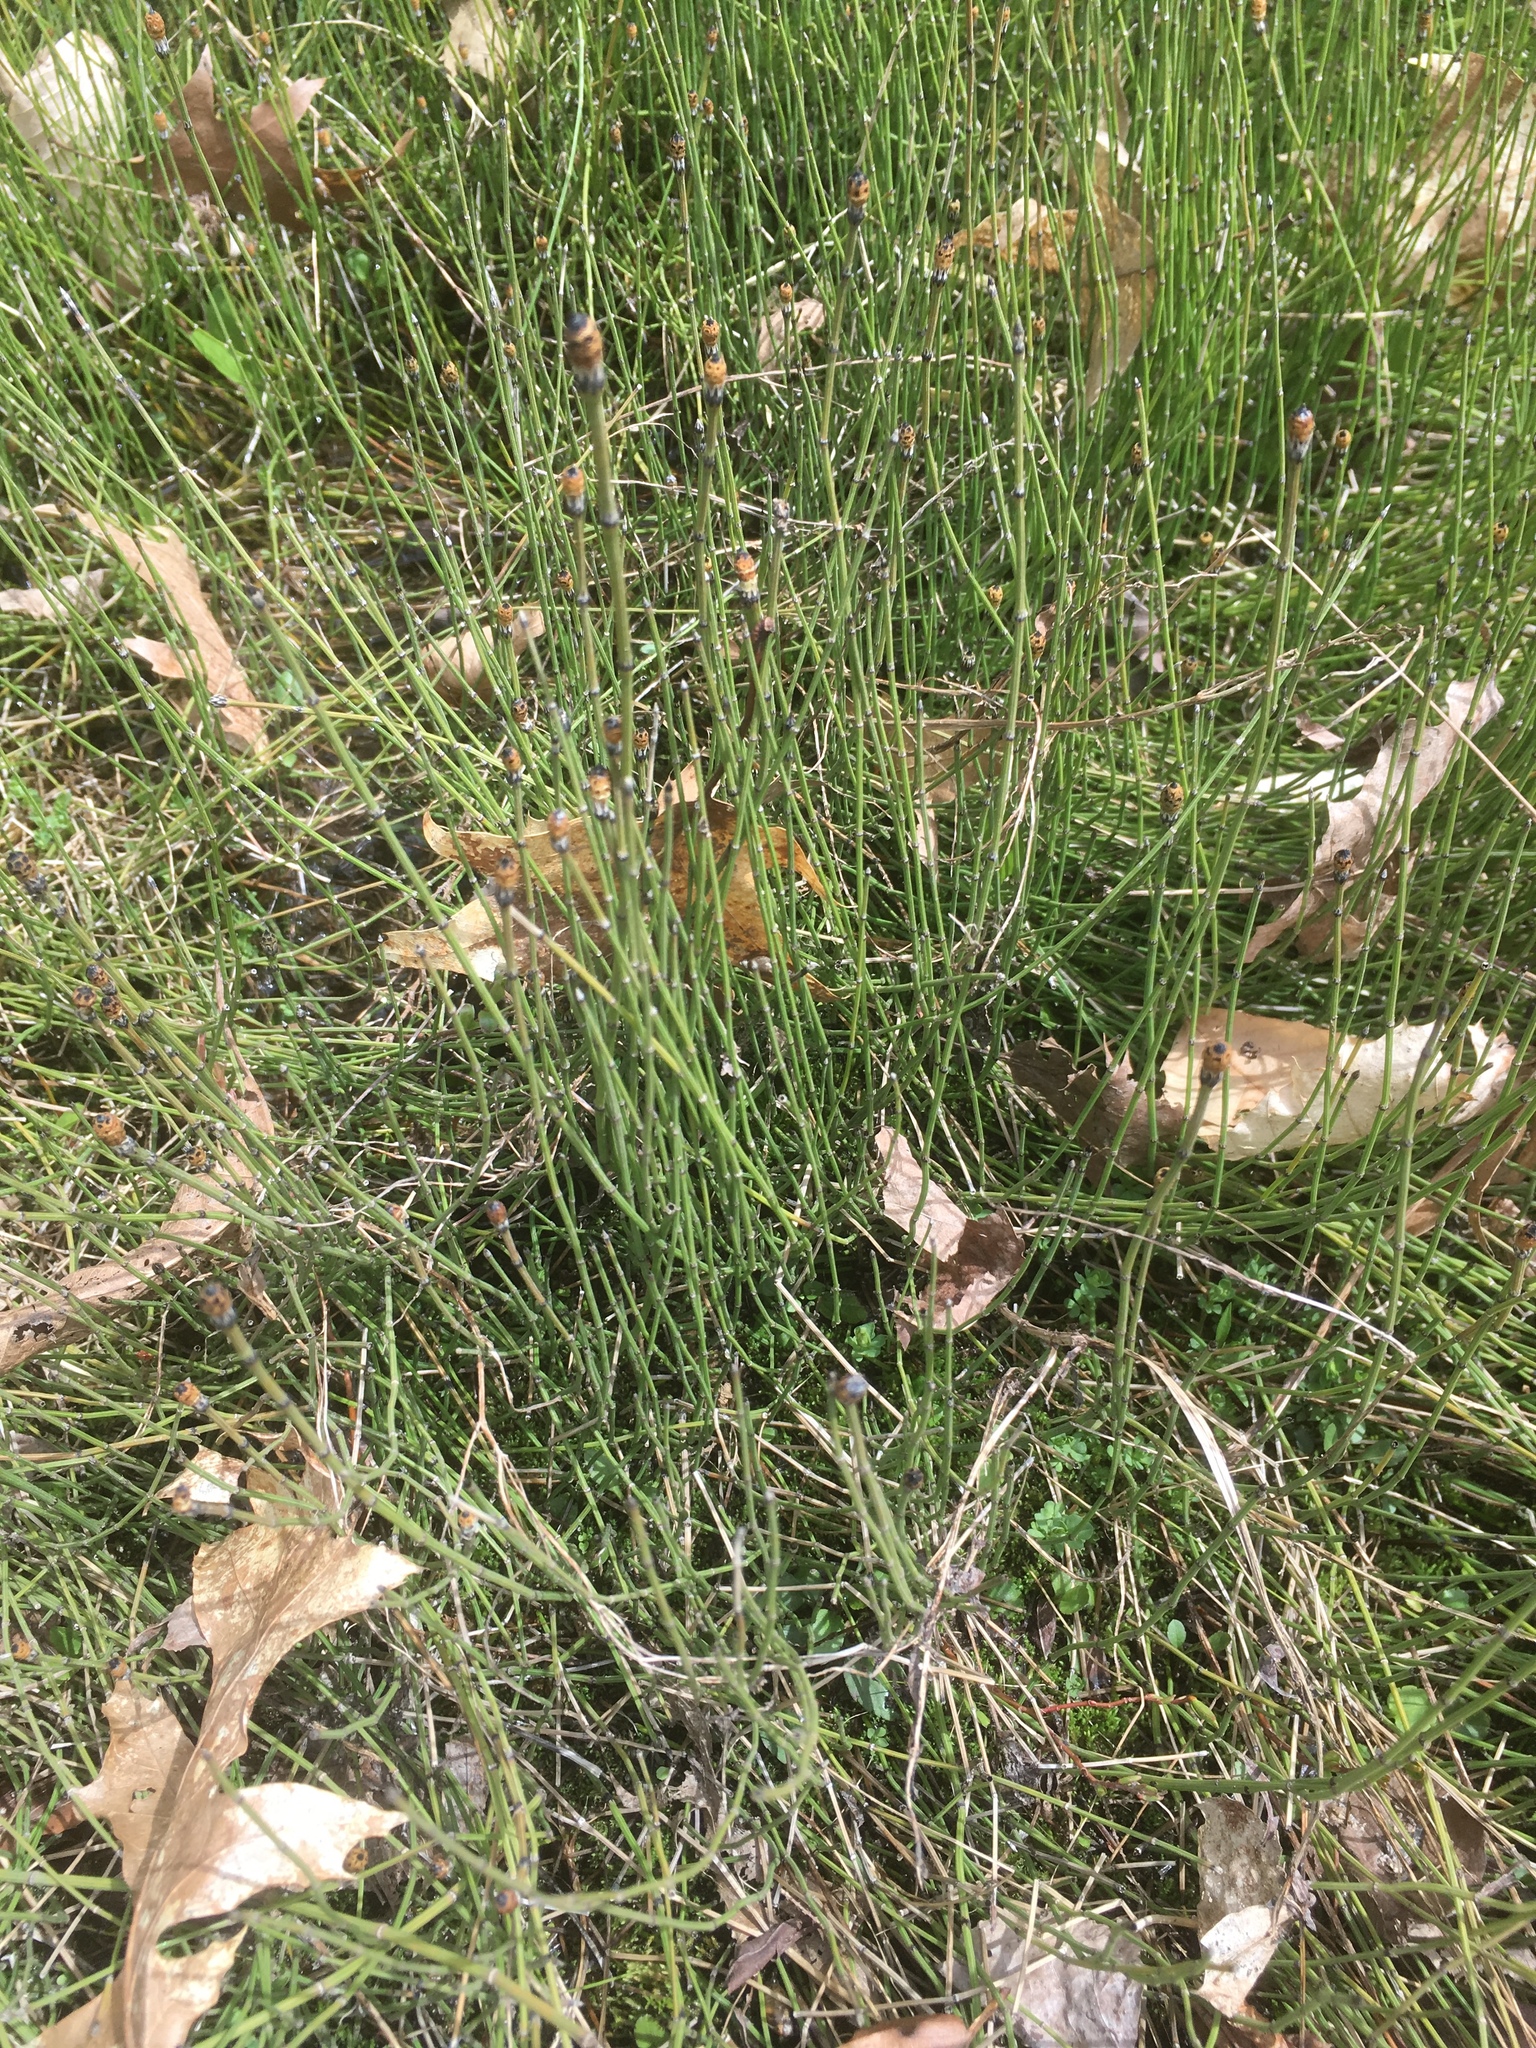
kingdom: Plantae
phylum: Tracheophyta
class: Polypodiopsida
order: Equisetales
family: Equisetaceae
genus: Equisetum
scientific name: Equisetum variegatum
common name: Variegated horsetail
